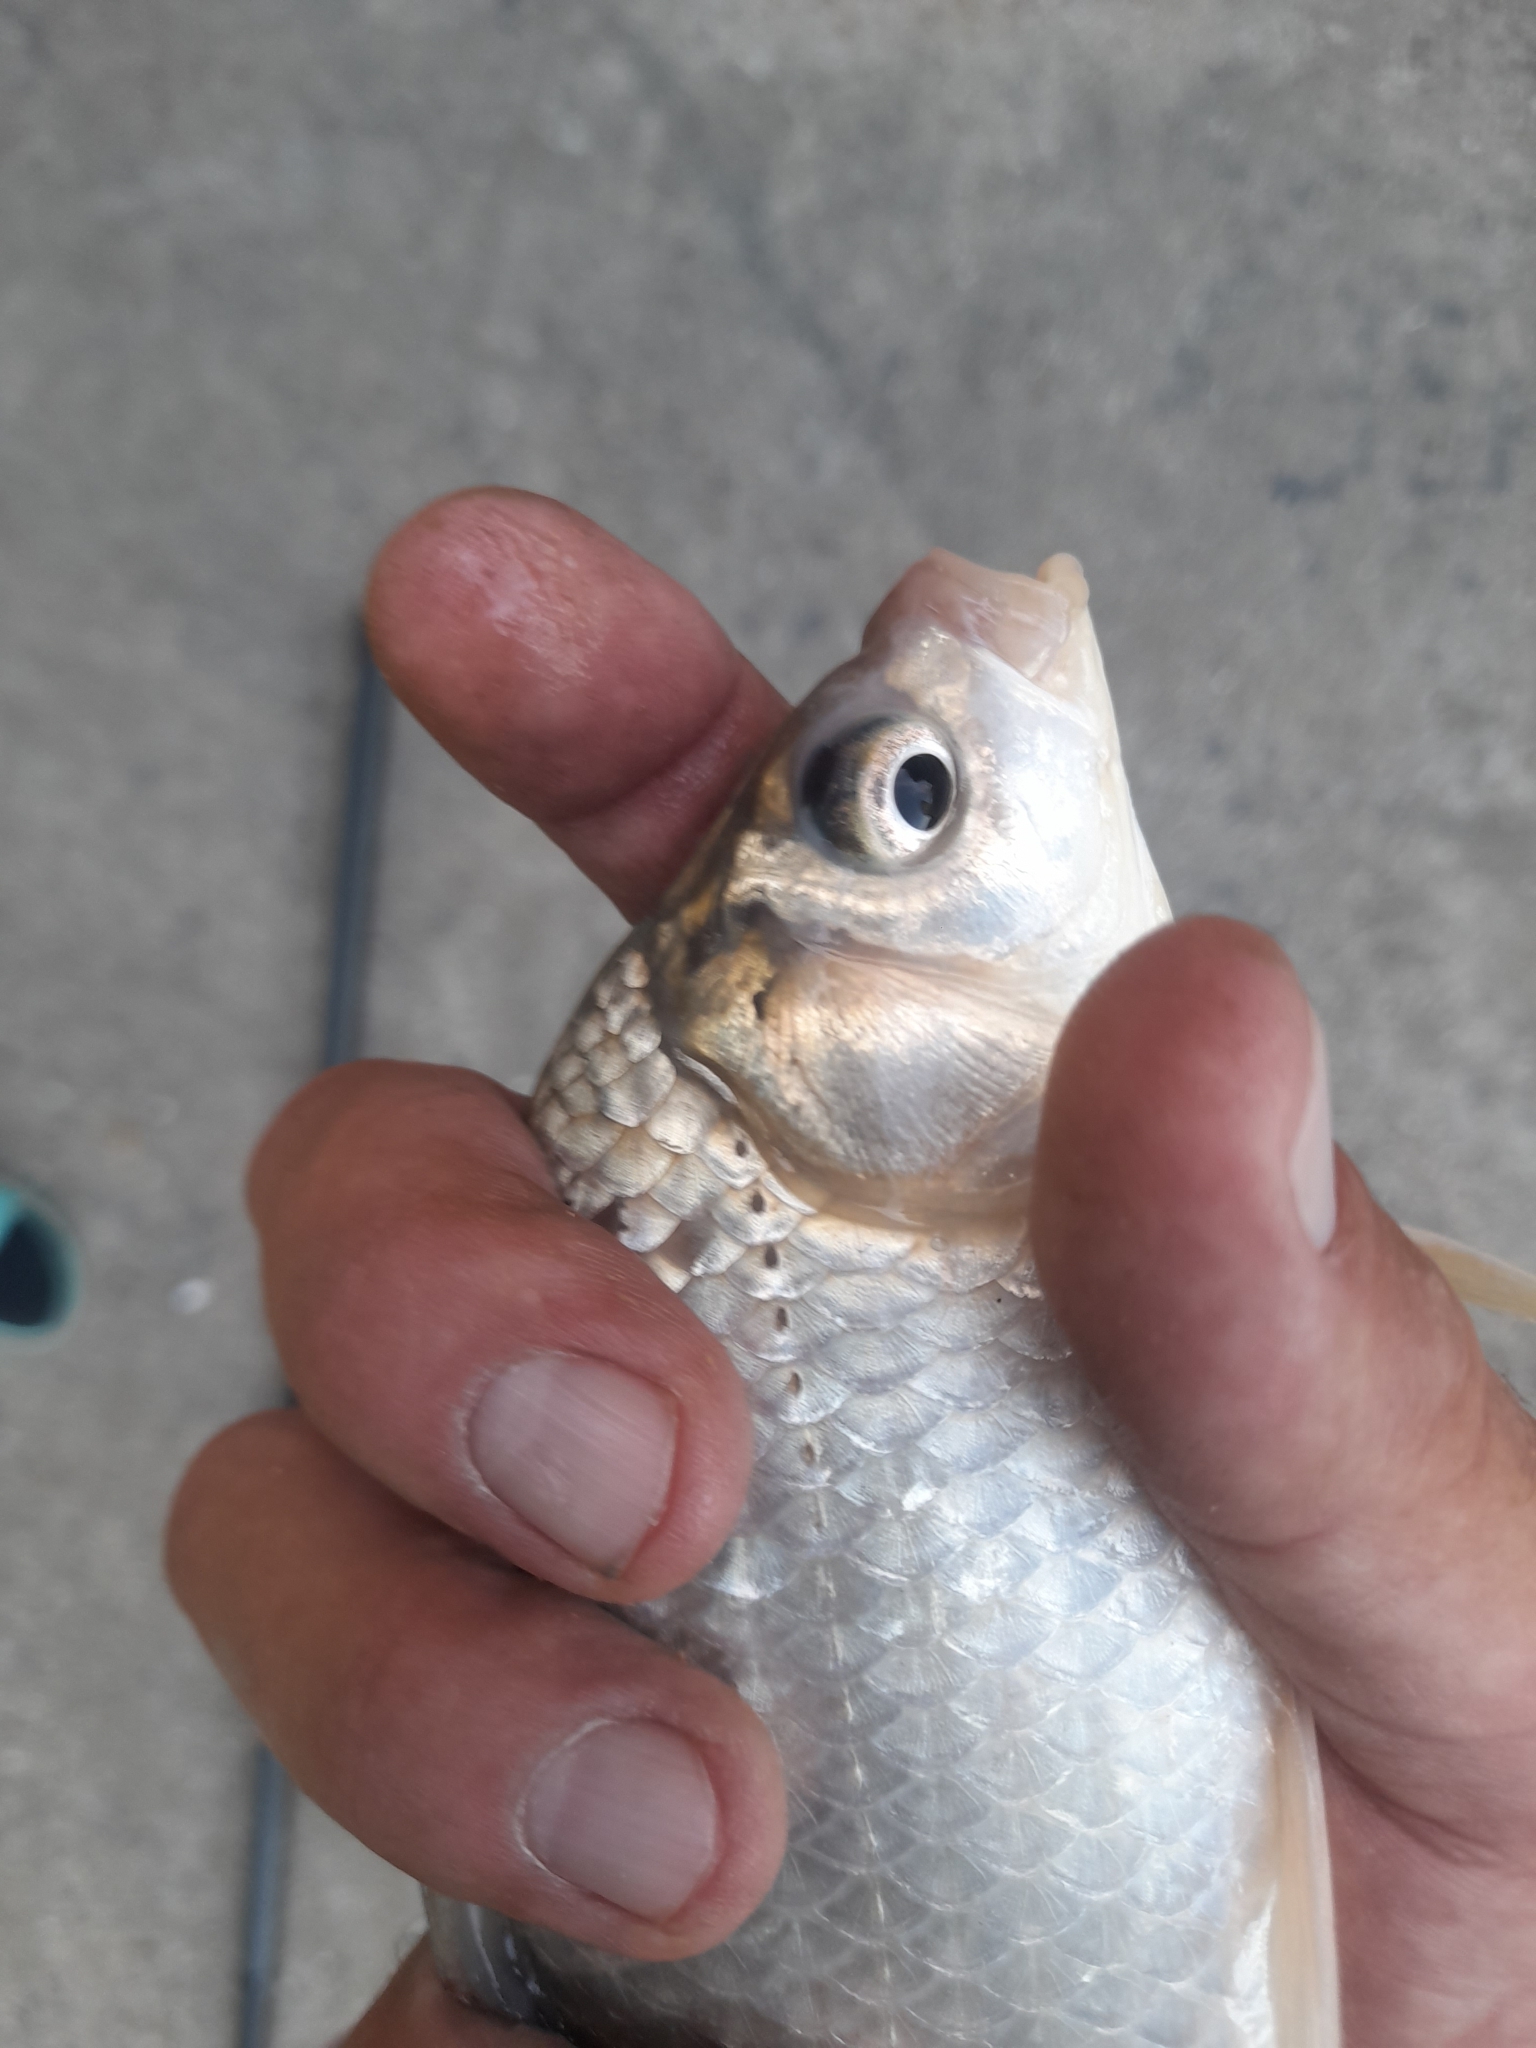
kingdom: Animalia
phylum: Chordata
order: Cypriniformes
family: Cyprinidae
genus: Carassius
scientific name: Carassius gibelio
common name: Prussian carp
